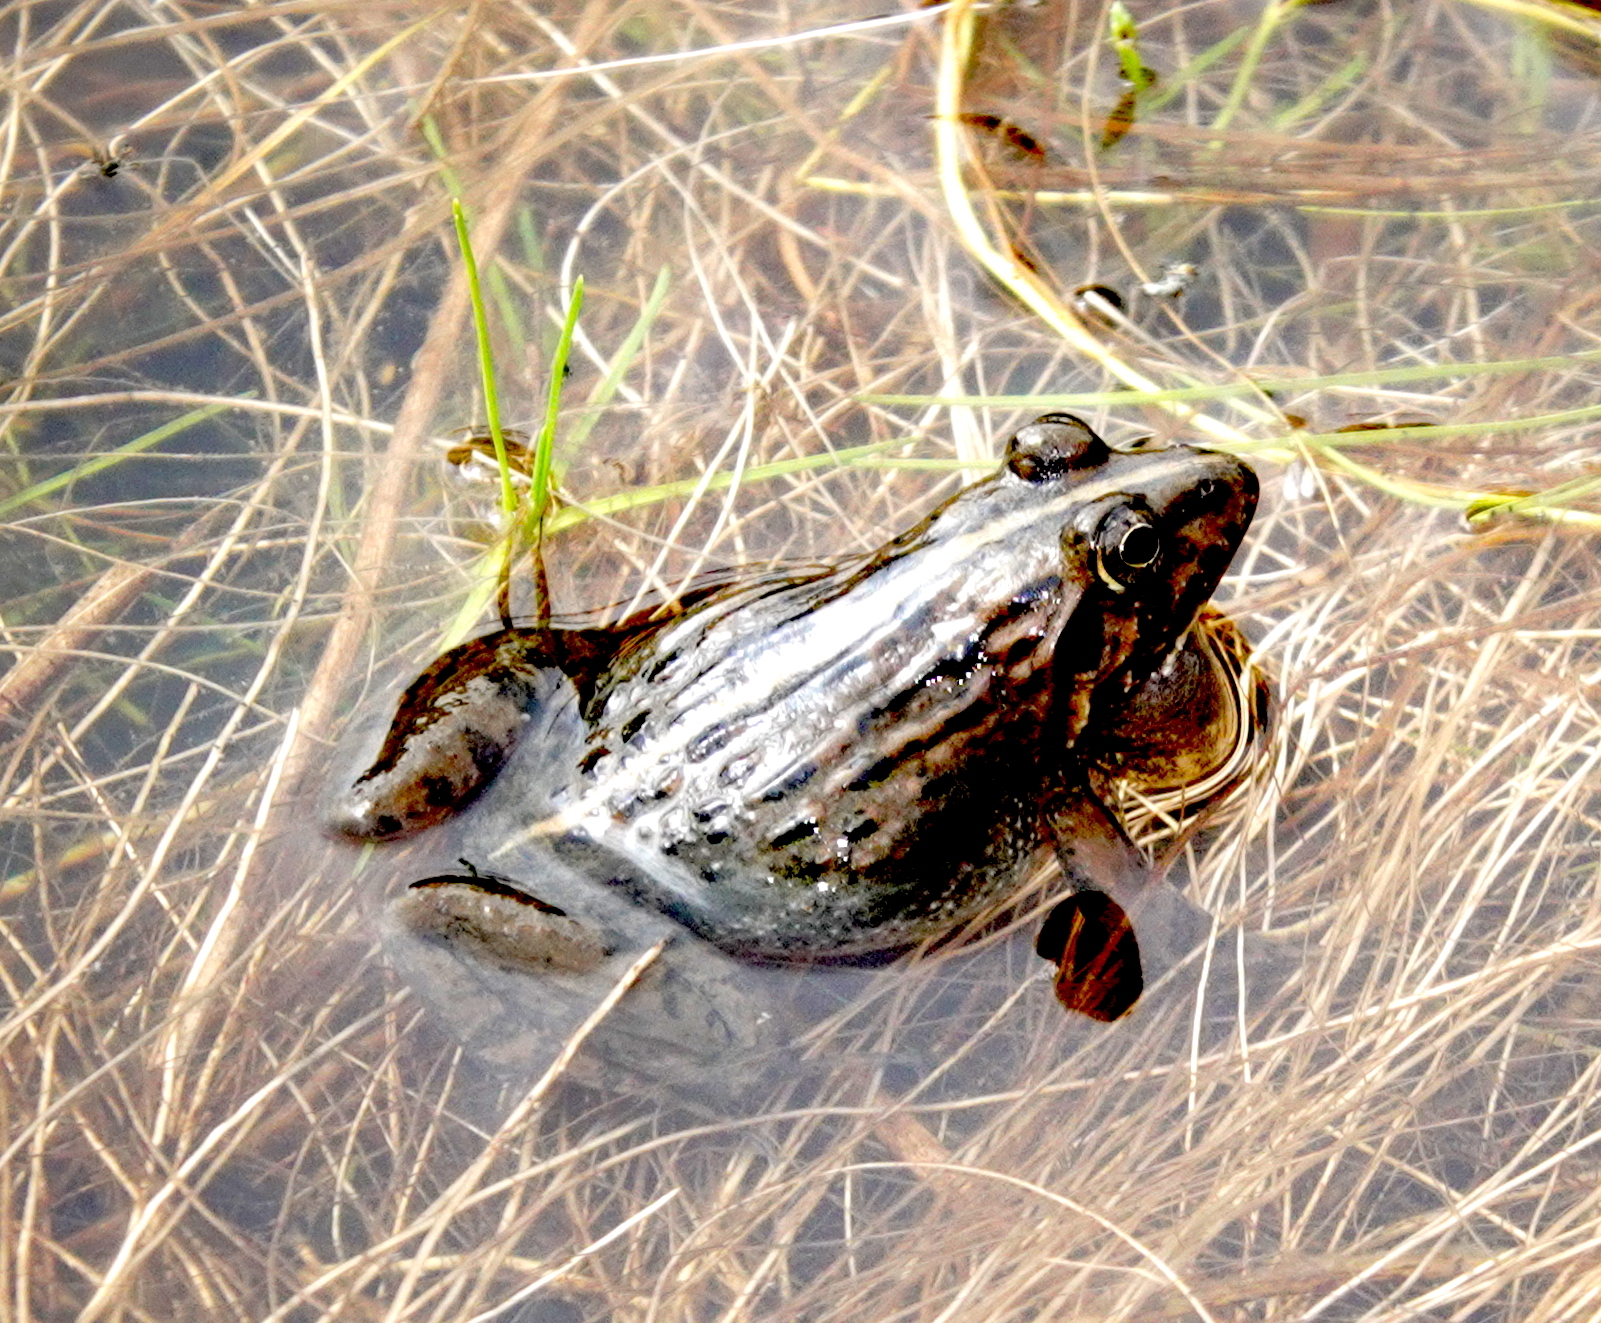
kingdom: Animalia
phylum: Chordata
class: Amphibia
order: Anura
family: Dicroglossidae
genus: Minervarya
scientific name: Minervarya greenii
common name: Montane frog
